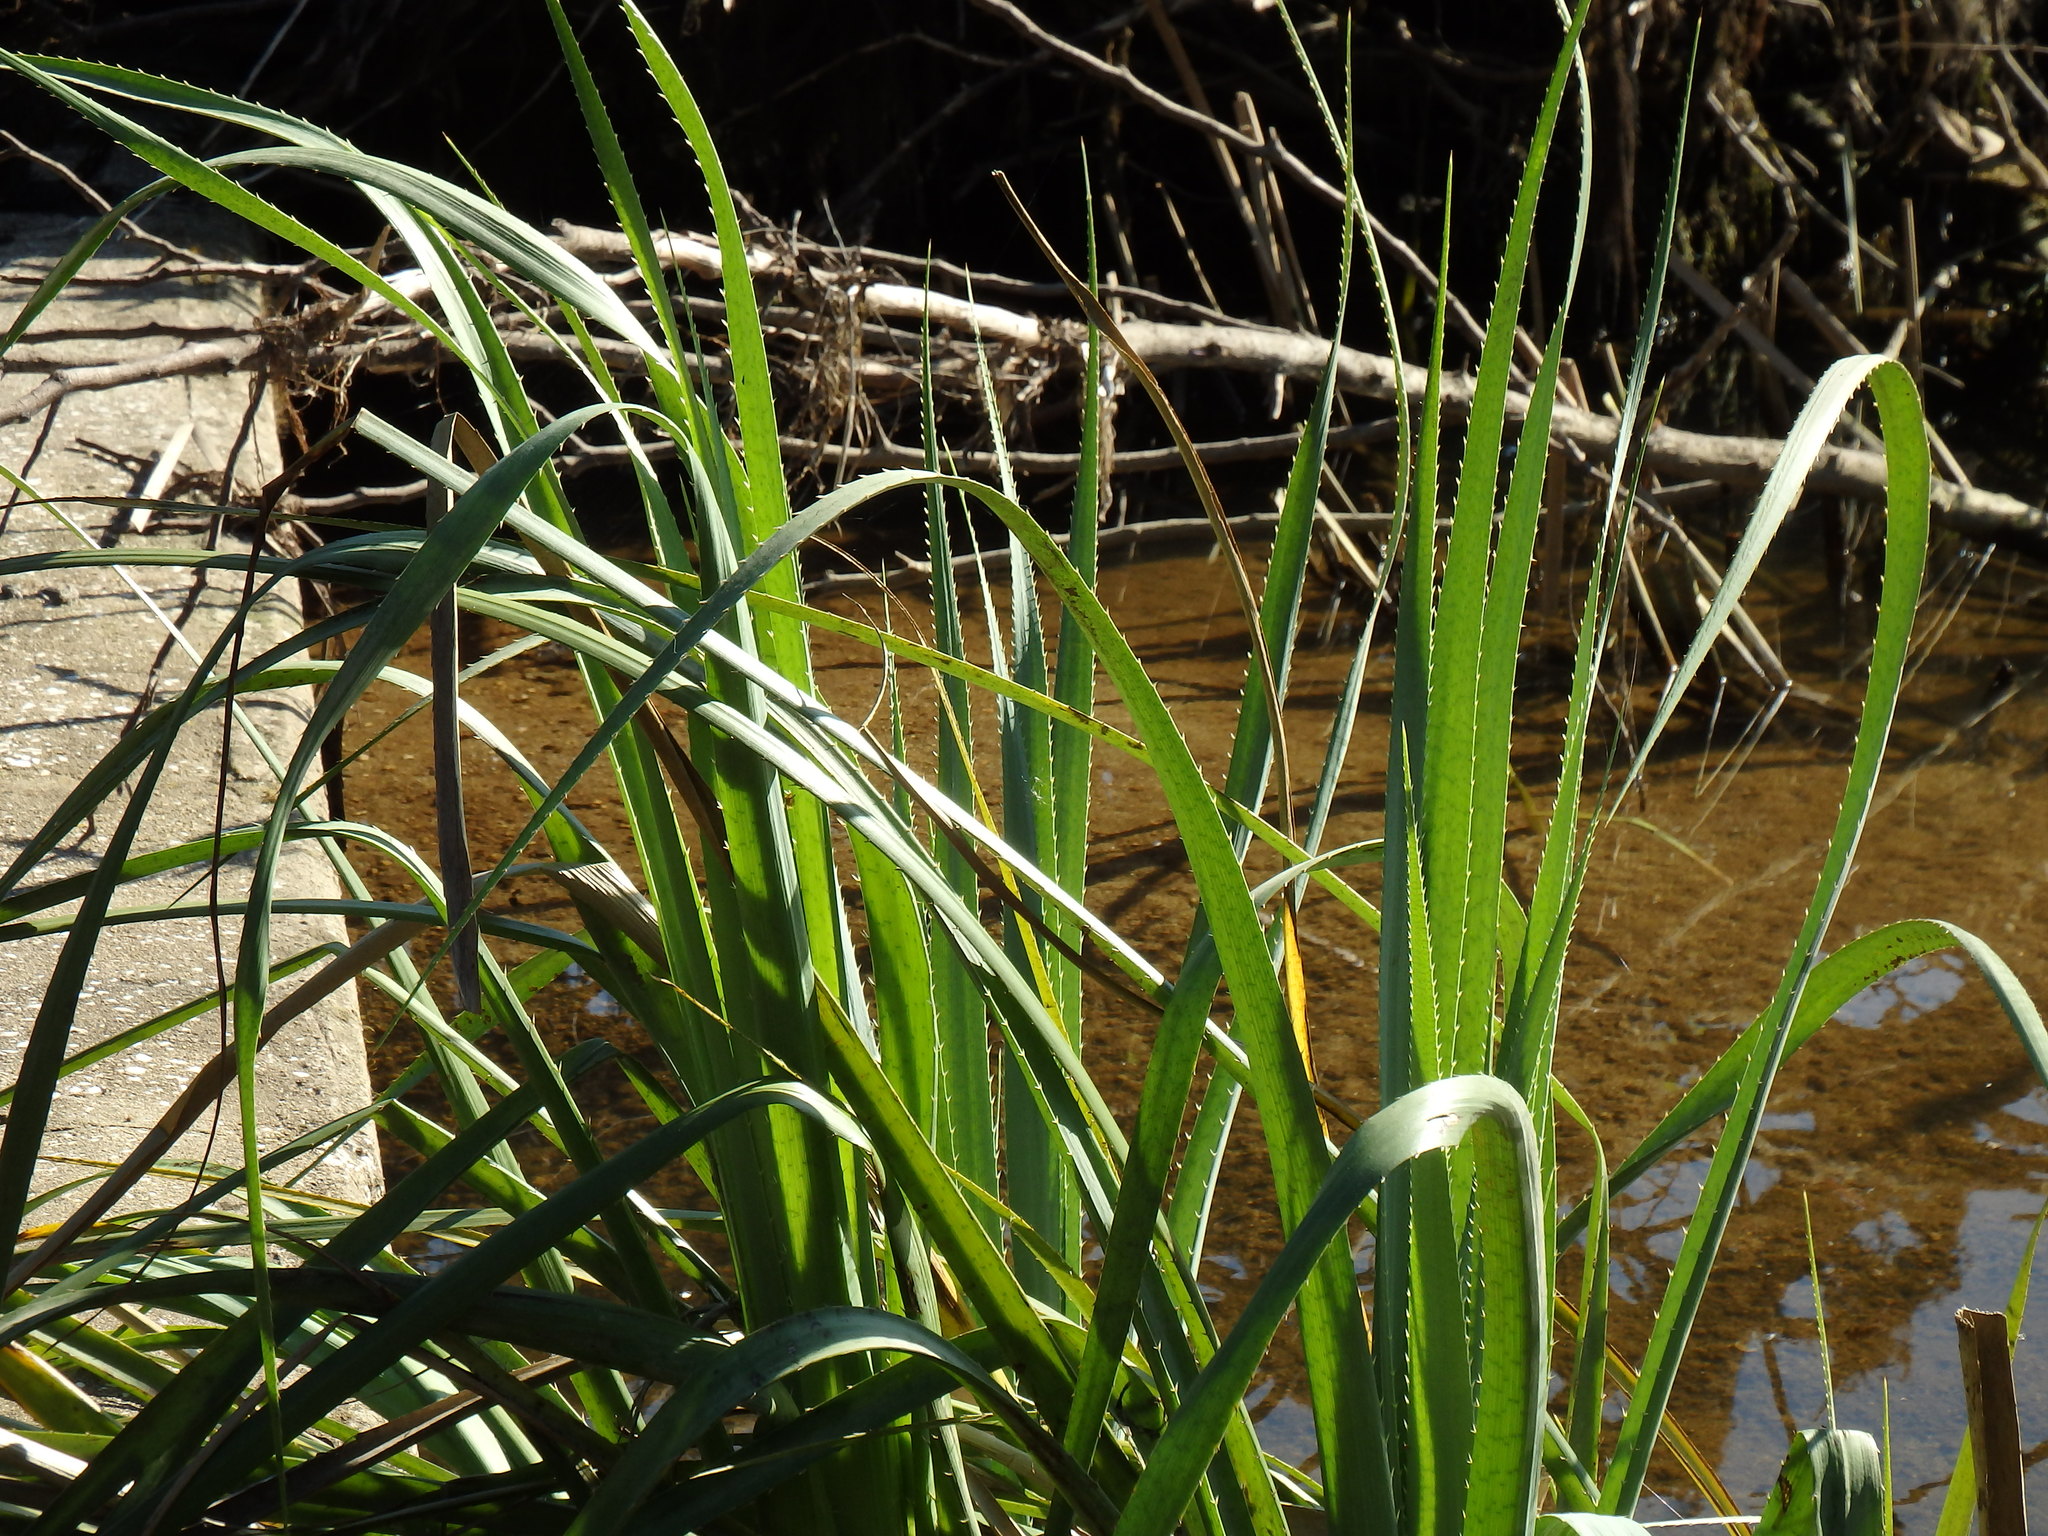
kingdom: Plantae
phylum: Tracheophyta
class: Magnoliopsida
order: Apiales
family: Apiaceae
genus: Eryngium
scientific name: Eryngium pandanifolium
